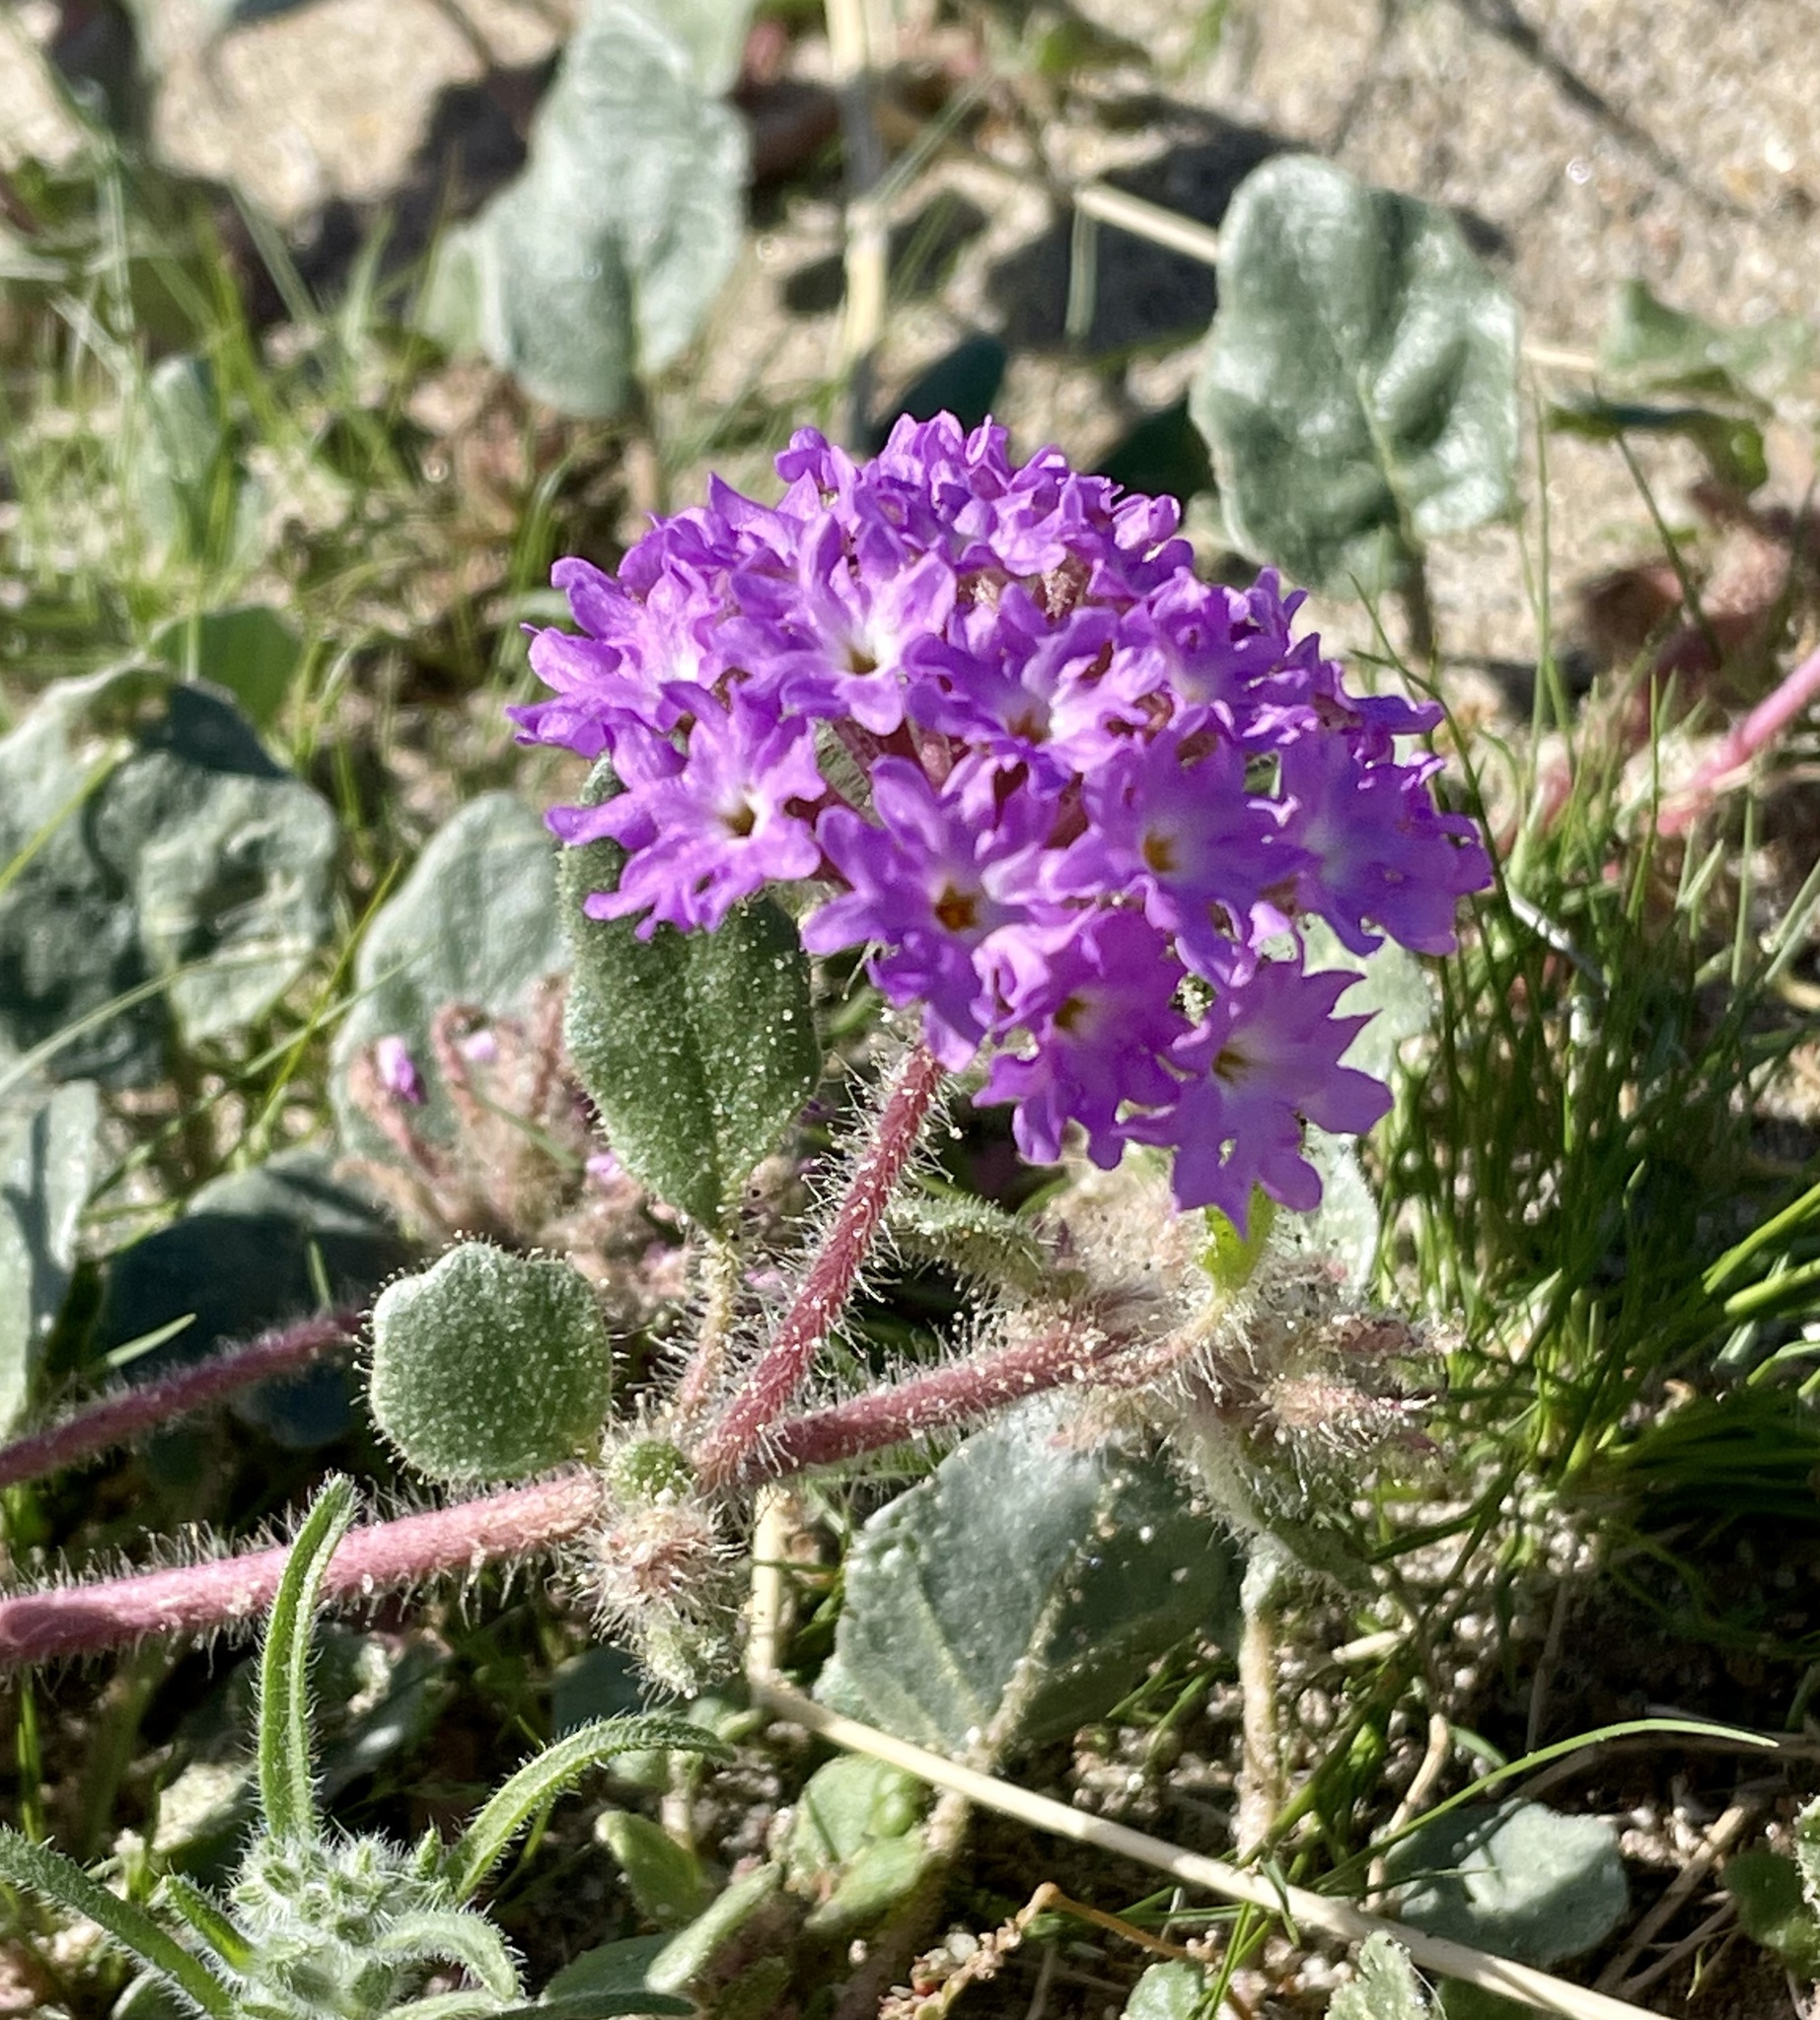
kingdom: Plantae
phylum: Tracheophyta
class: Magnoliopsida
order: Caryophyllales
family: Nyctaginaceae
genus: Abronia
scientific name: Abronia villosa
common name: Desert sand-verbena
